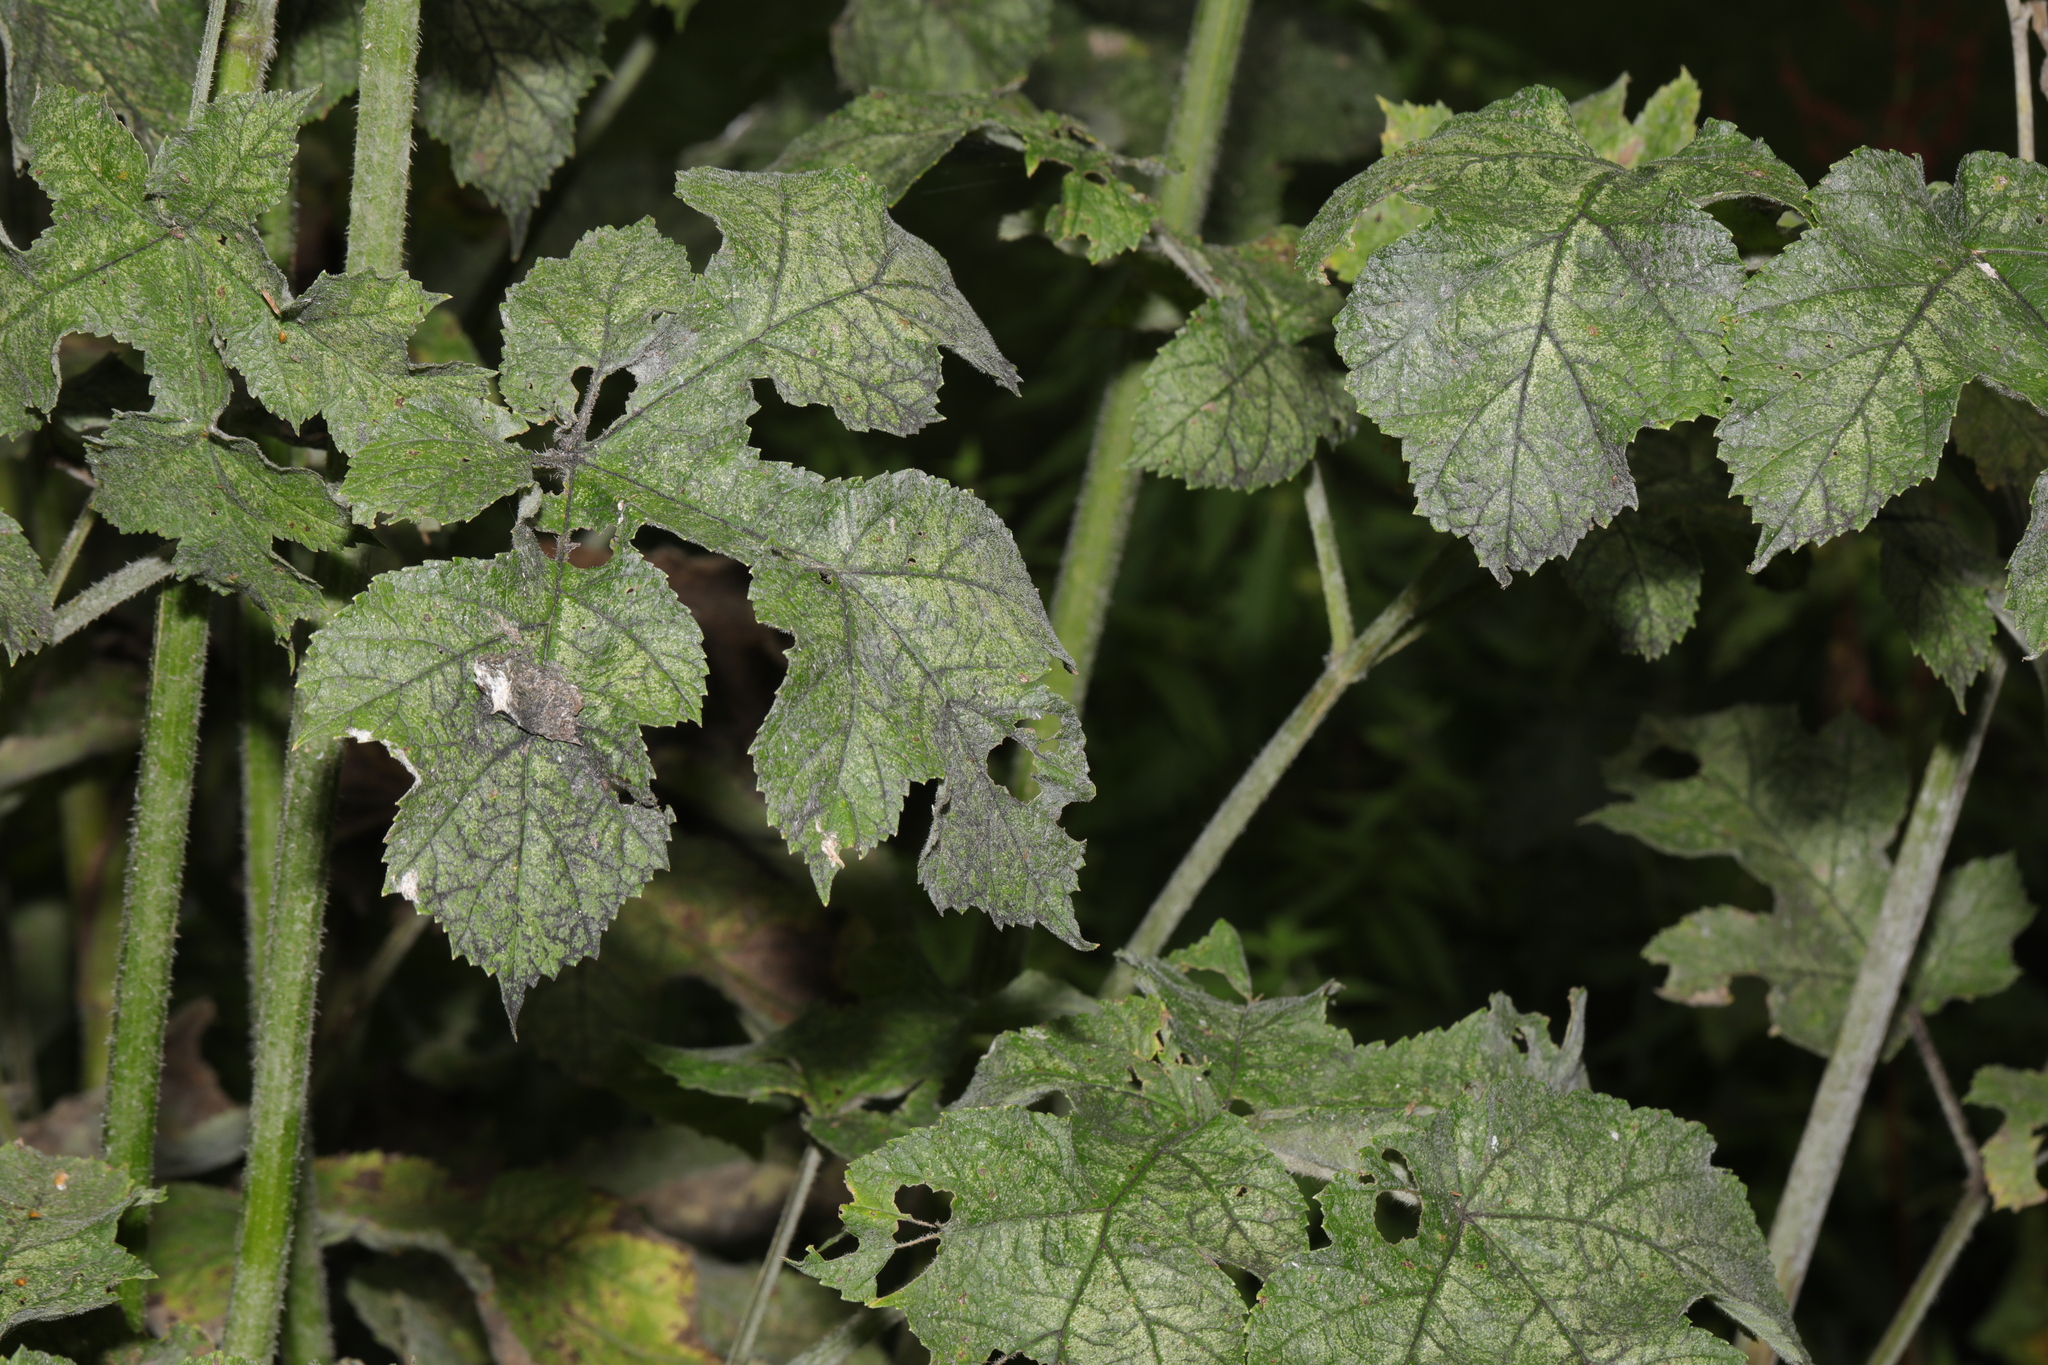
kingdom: Plantae
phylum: Tracheophyta
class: Magnoliopsida
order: Apiales
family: Apiaceae
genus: Heracleum
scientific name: Heracleum sphondylium
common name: Hogweed
